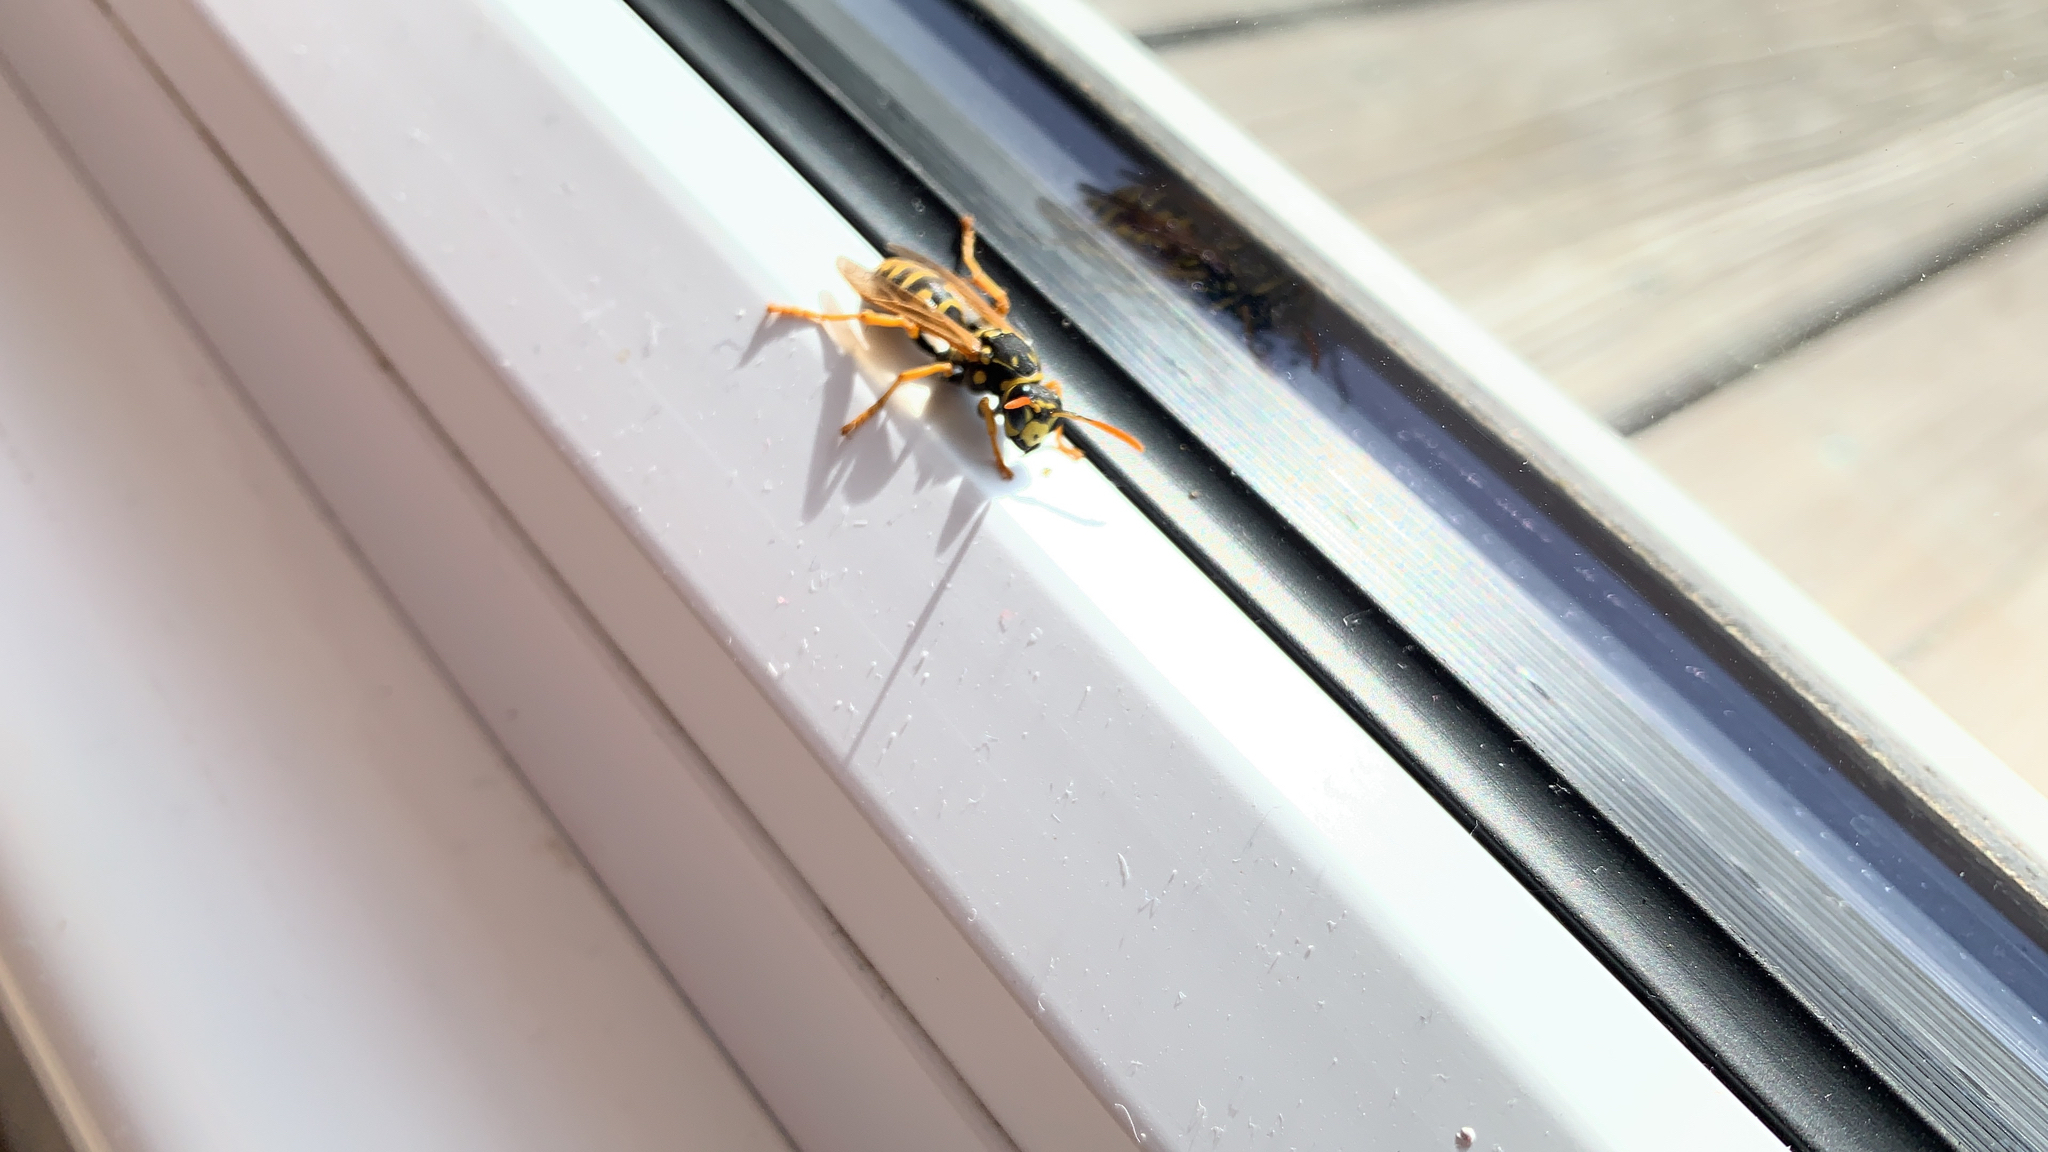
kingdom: Animalia
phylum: Arthropoda
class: Insecta
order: Hymenoptera
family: Eumenidae
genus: Polistes
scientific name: Polistes dominula
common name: Paper wasp
